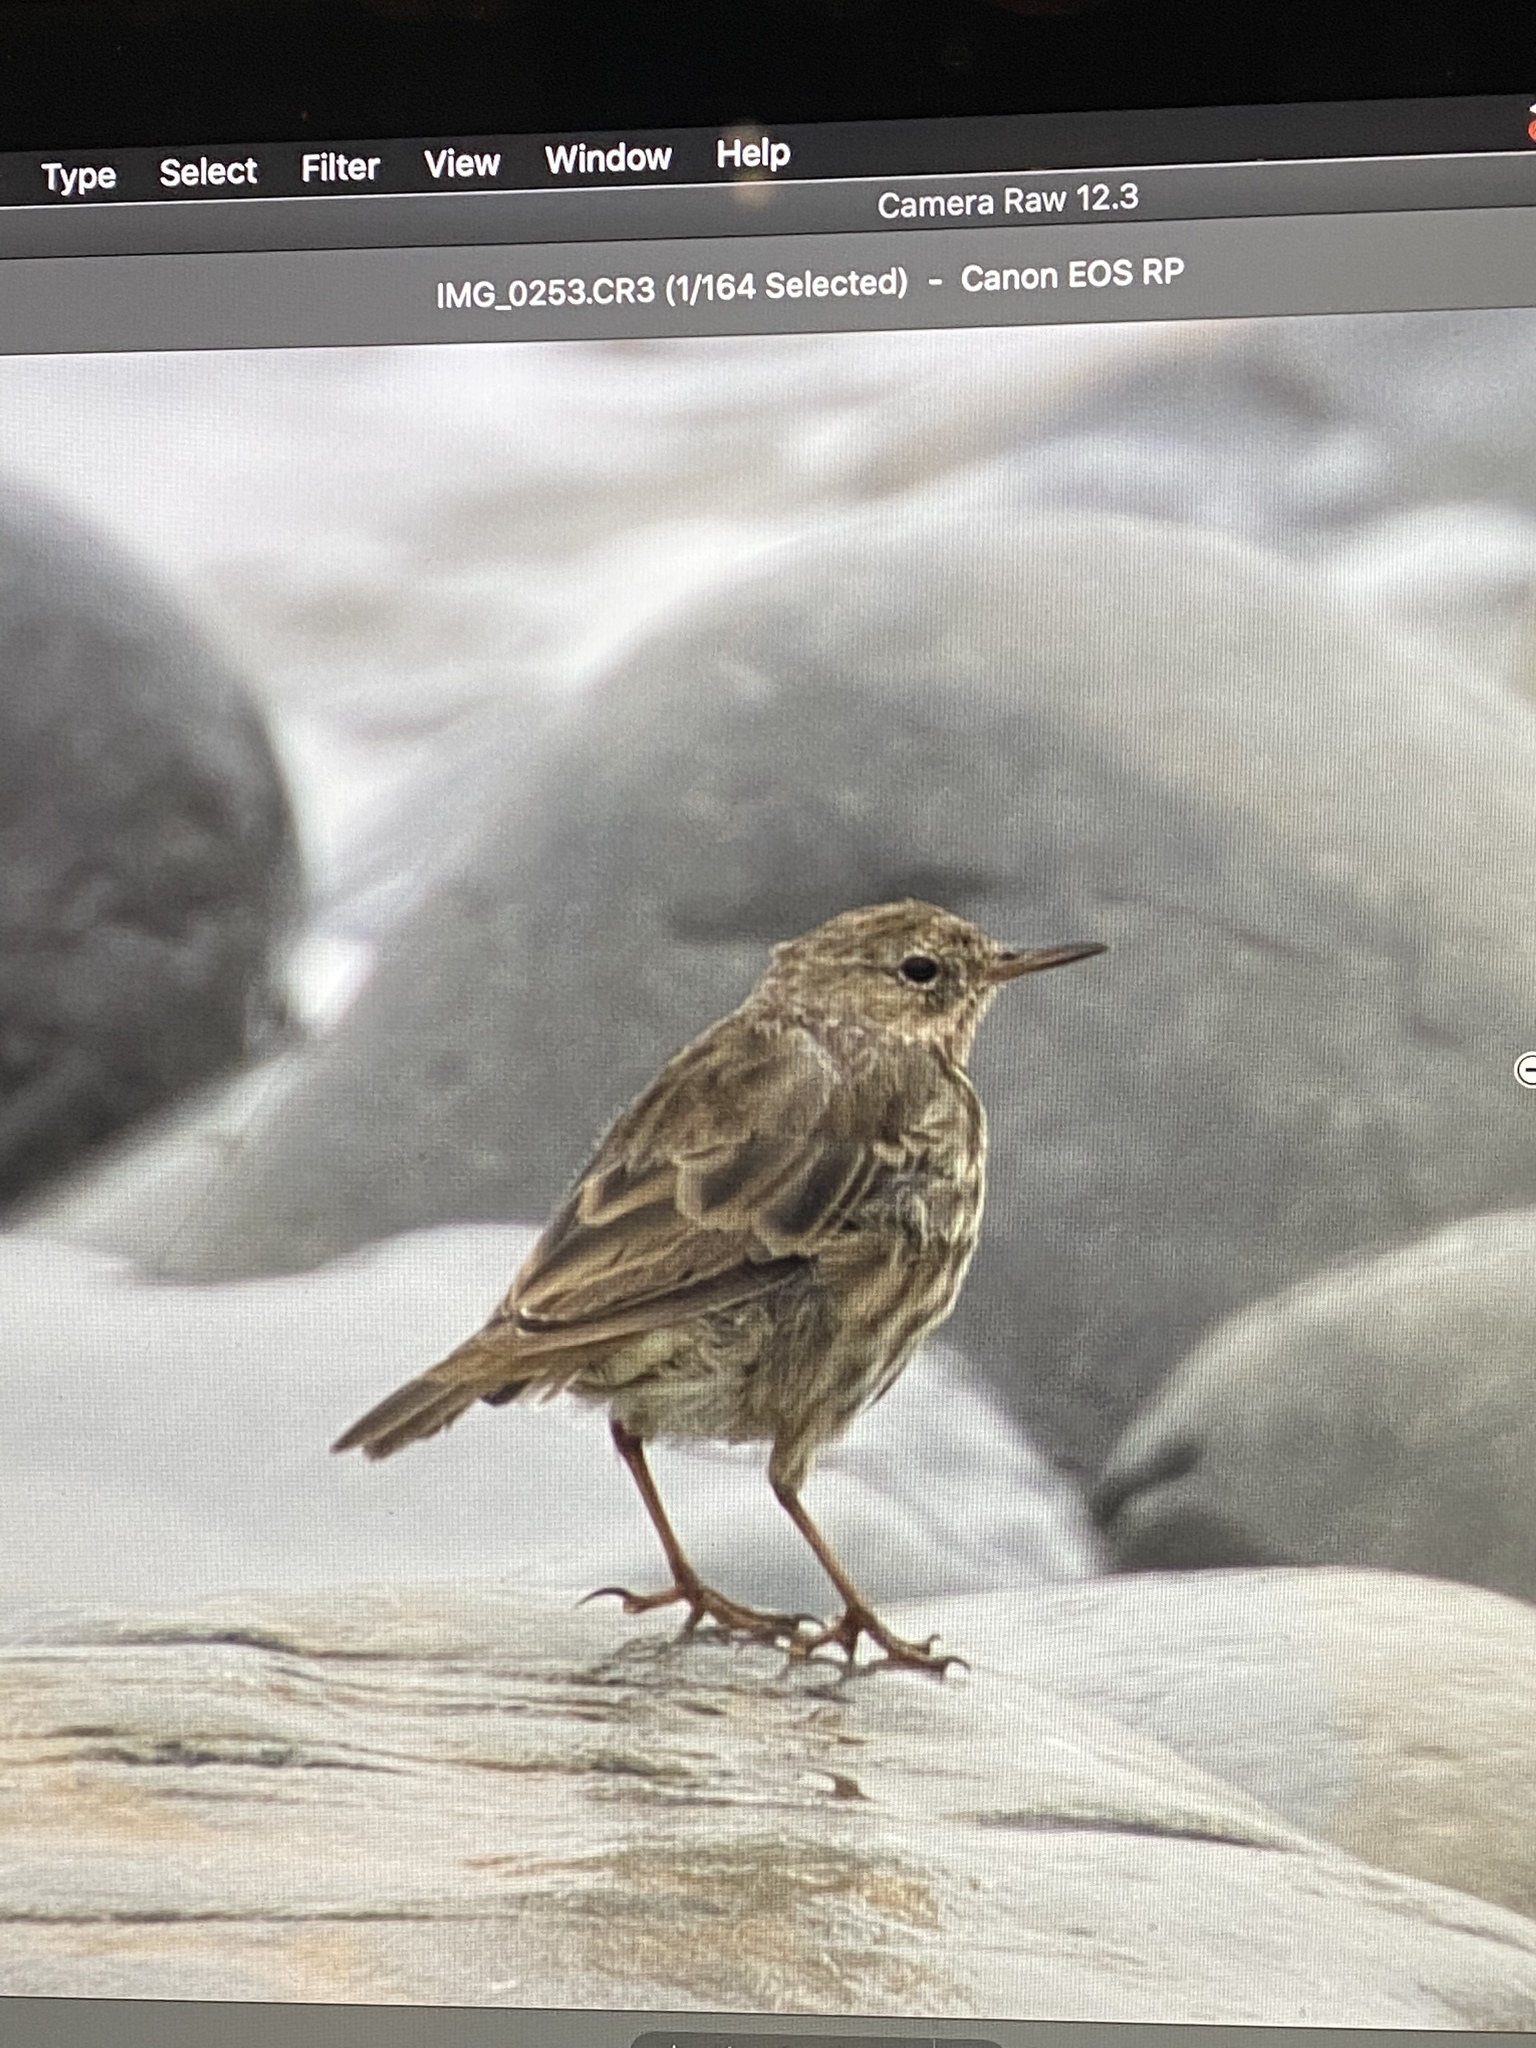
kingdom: Animalia
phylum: Chordata
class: Aves
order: Passeriformes
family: Motacillidae
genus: Anthus
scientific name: Anthus petrosus
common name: Eurasian rock pipit
